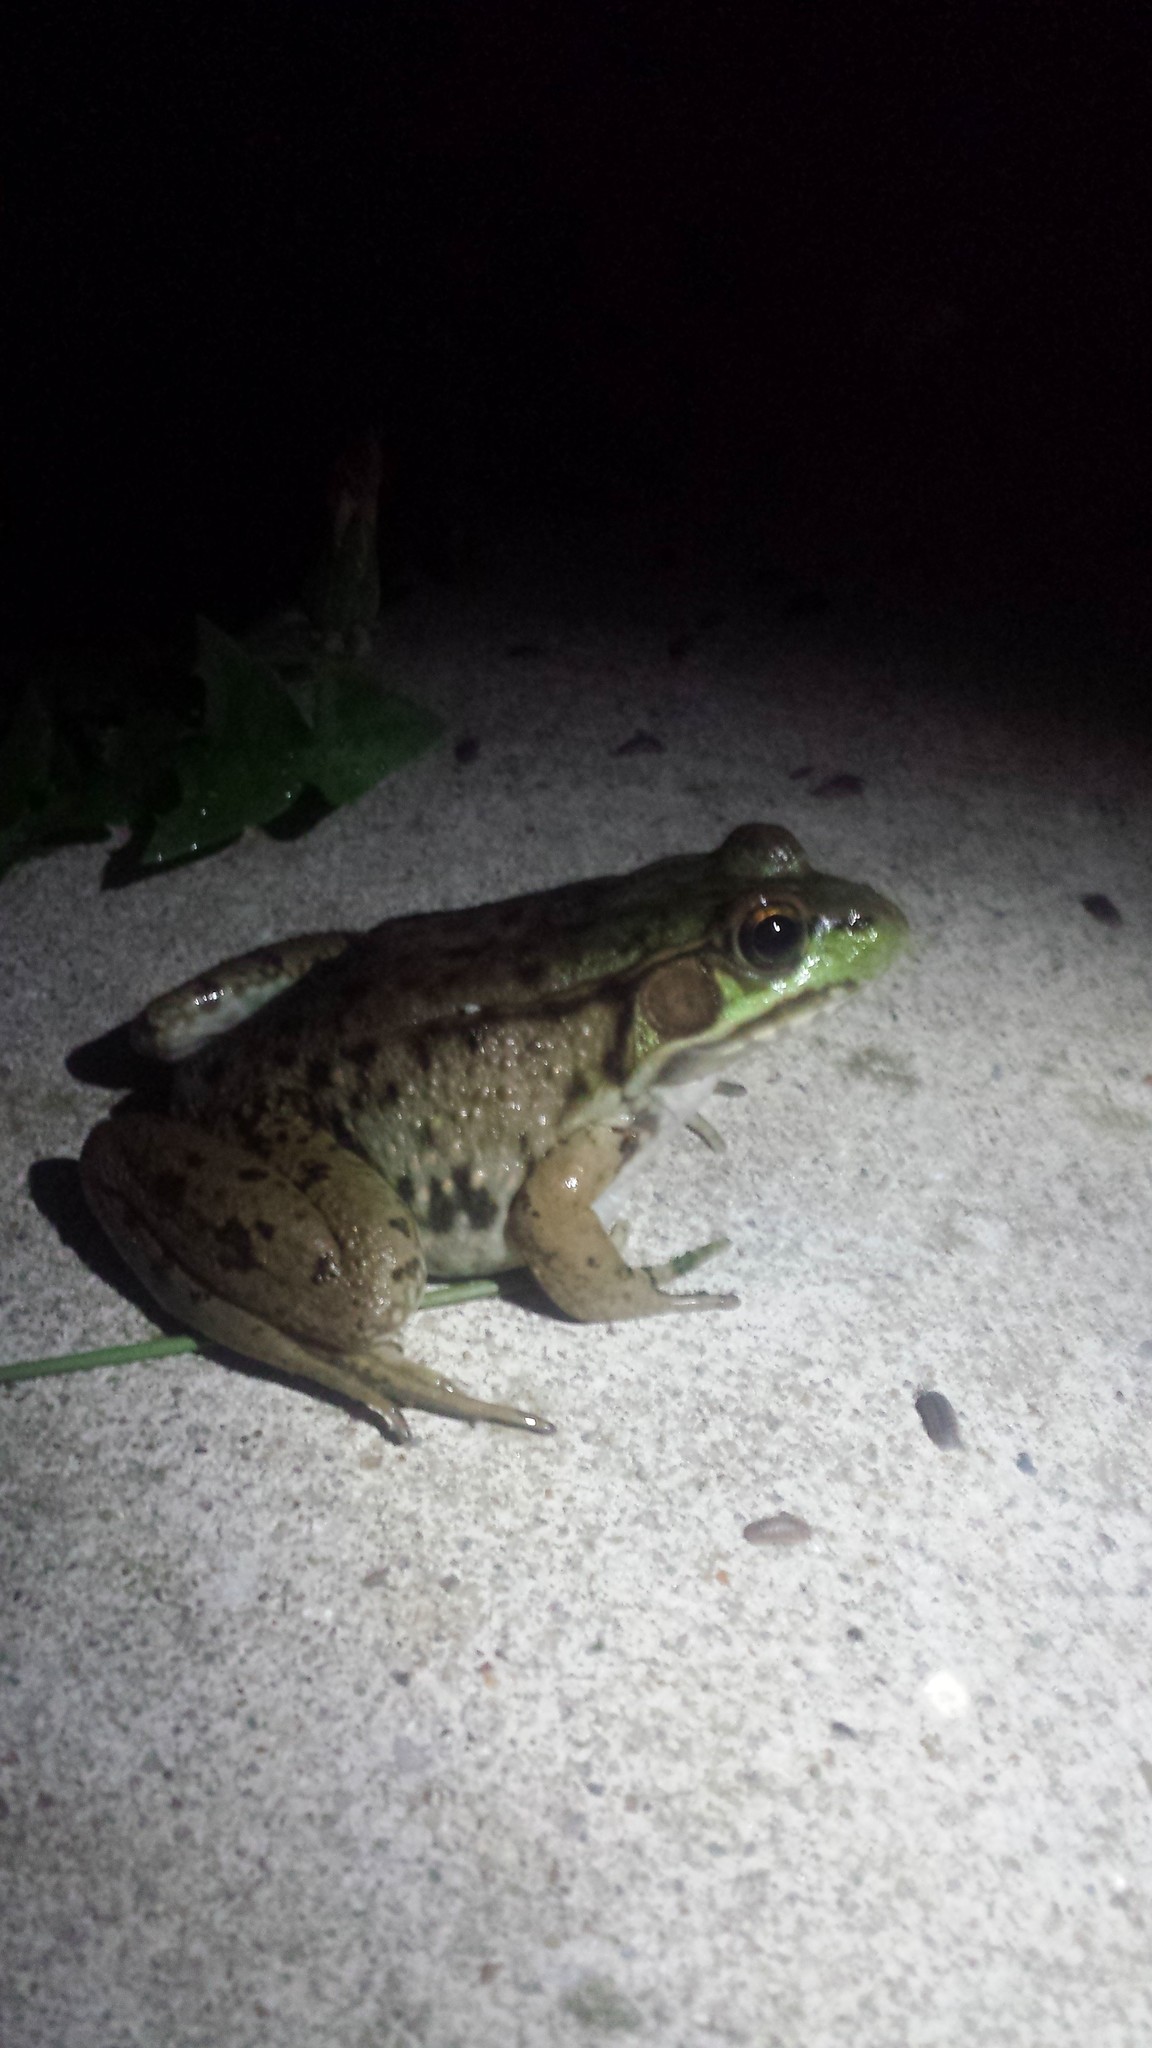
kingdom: Animalia
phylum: Chordata
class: Amphibia
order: Anura
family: Ranidae
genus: Lithobates
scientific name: Lithobates clamitans
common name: Green frog
